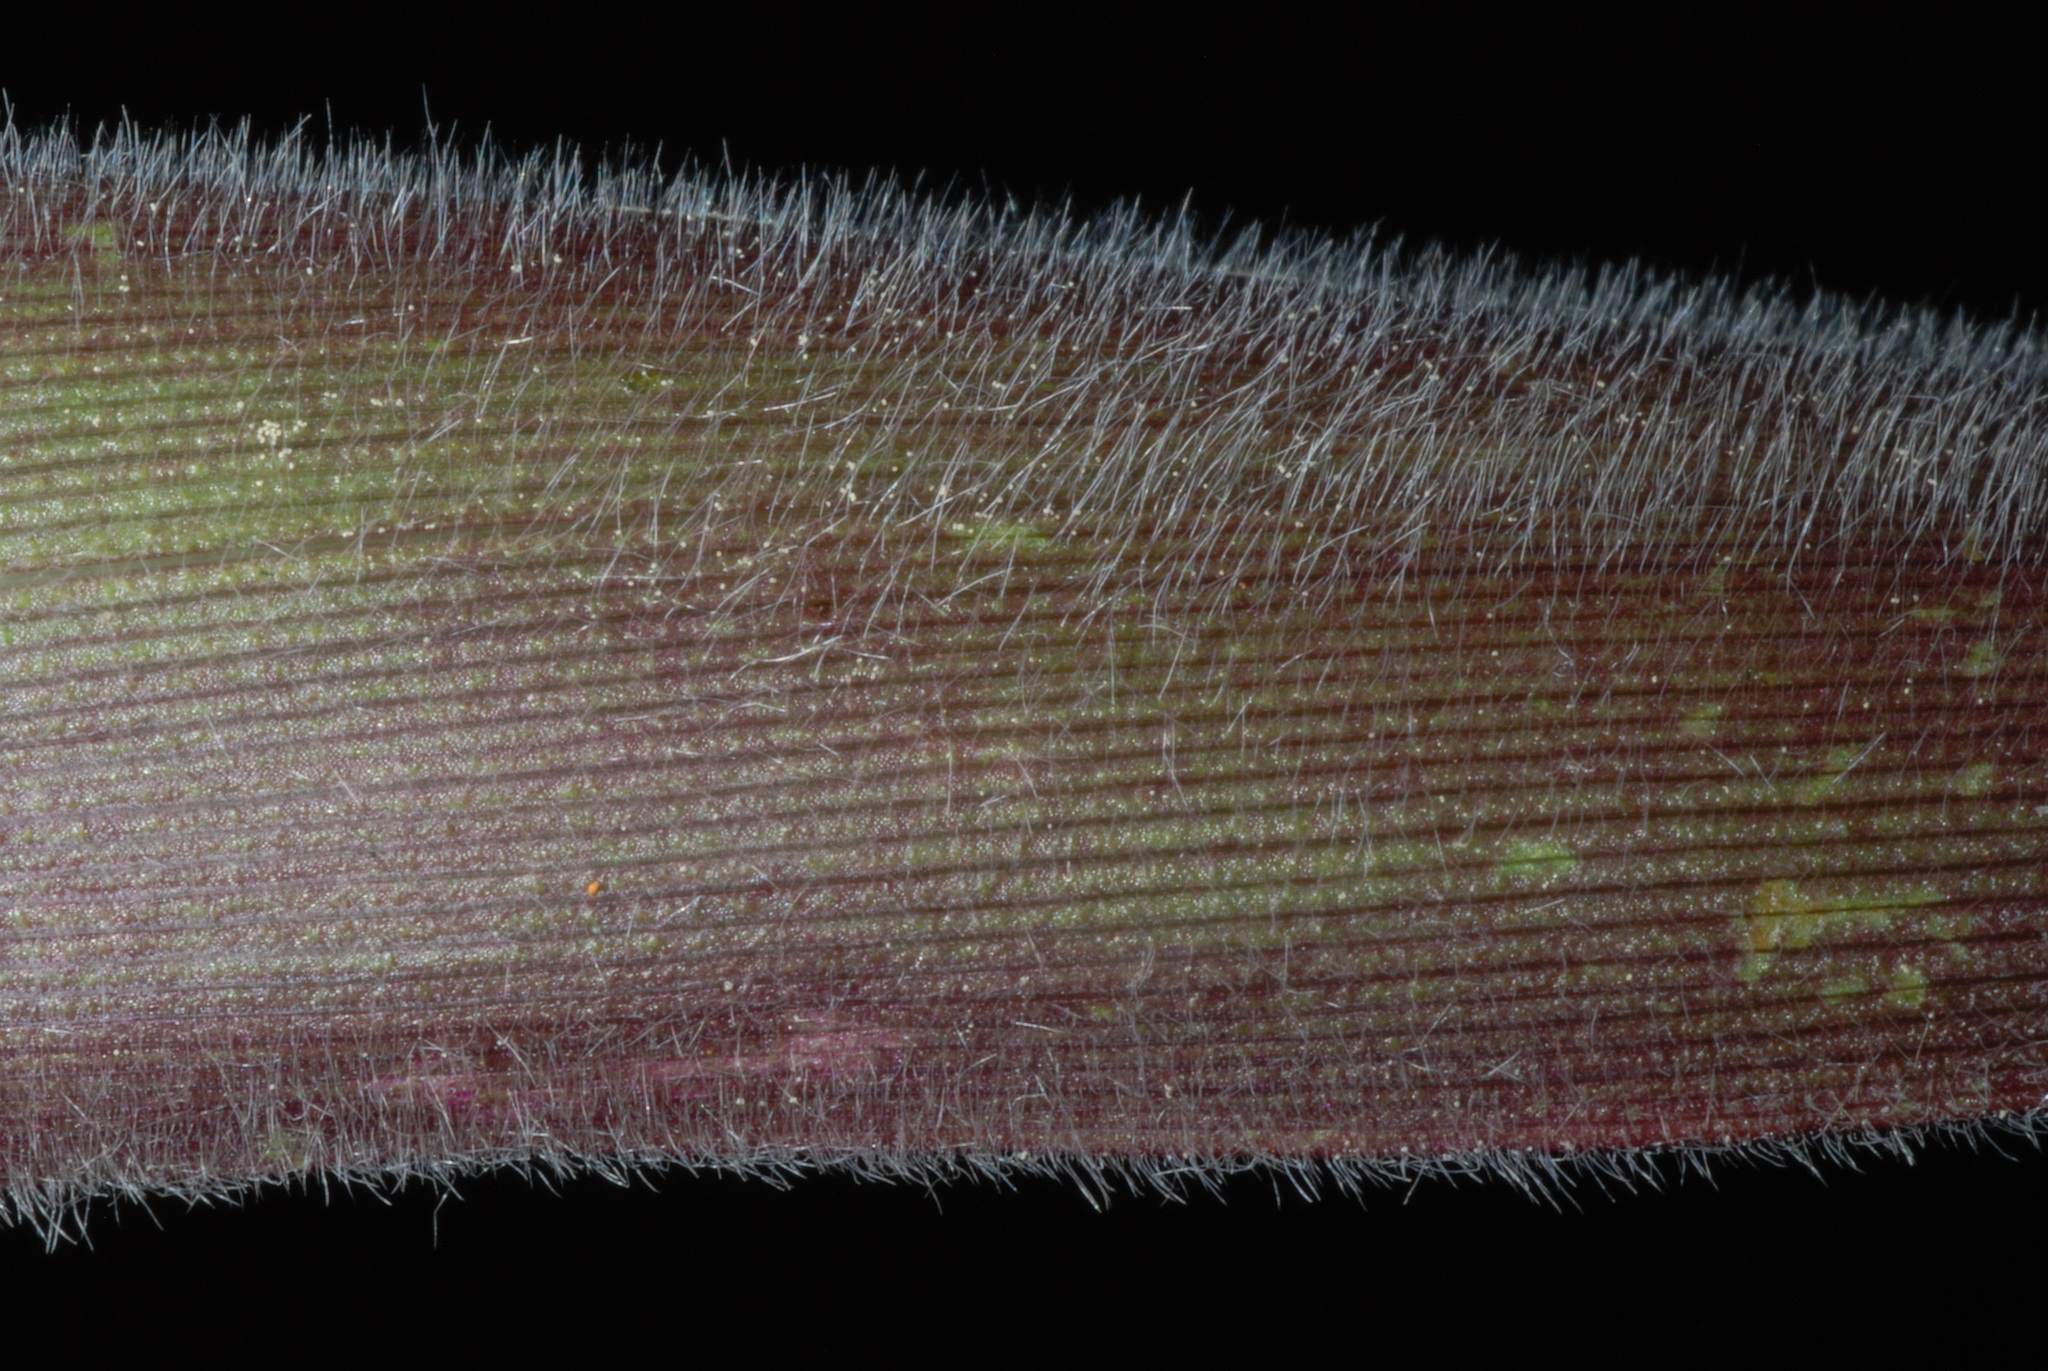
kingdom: Plantae
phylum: Tracheophyta
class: Liliopsida
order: Poales
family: Poaceae
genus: Dichanthelium
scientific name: Dichanthelium mattamuskeetense
